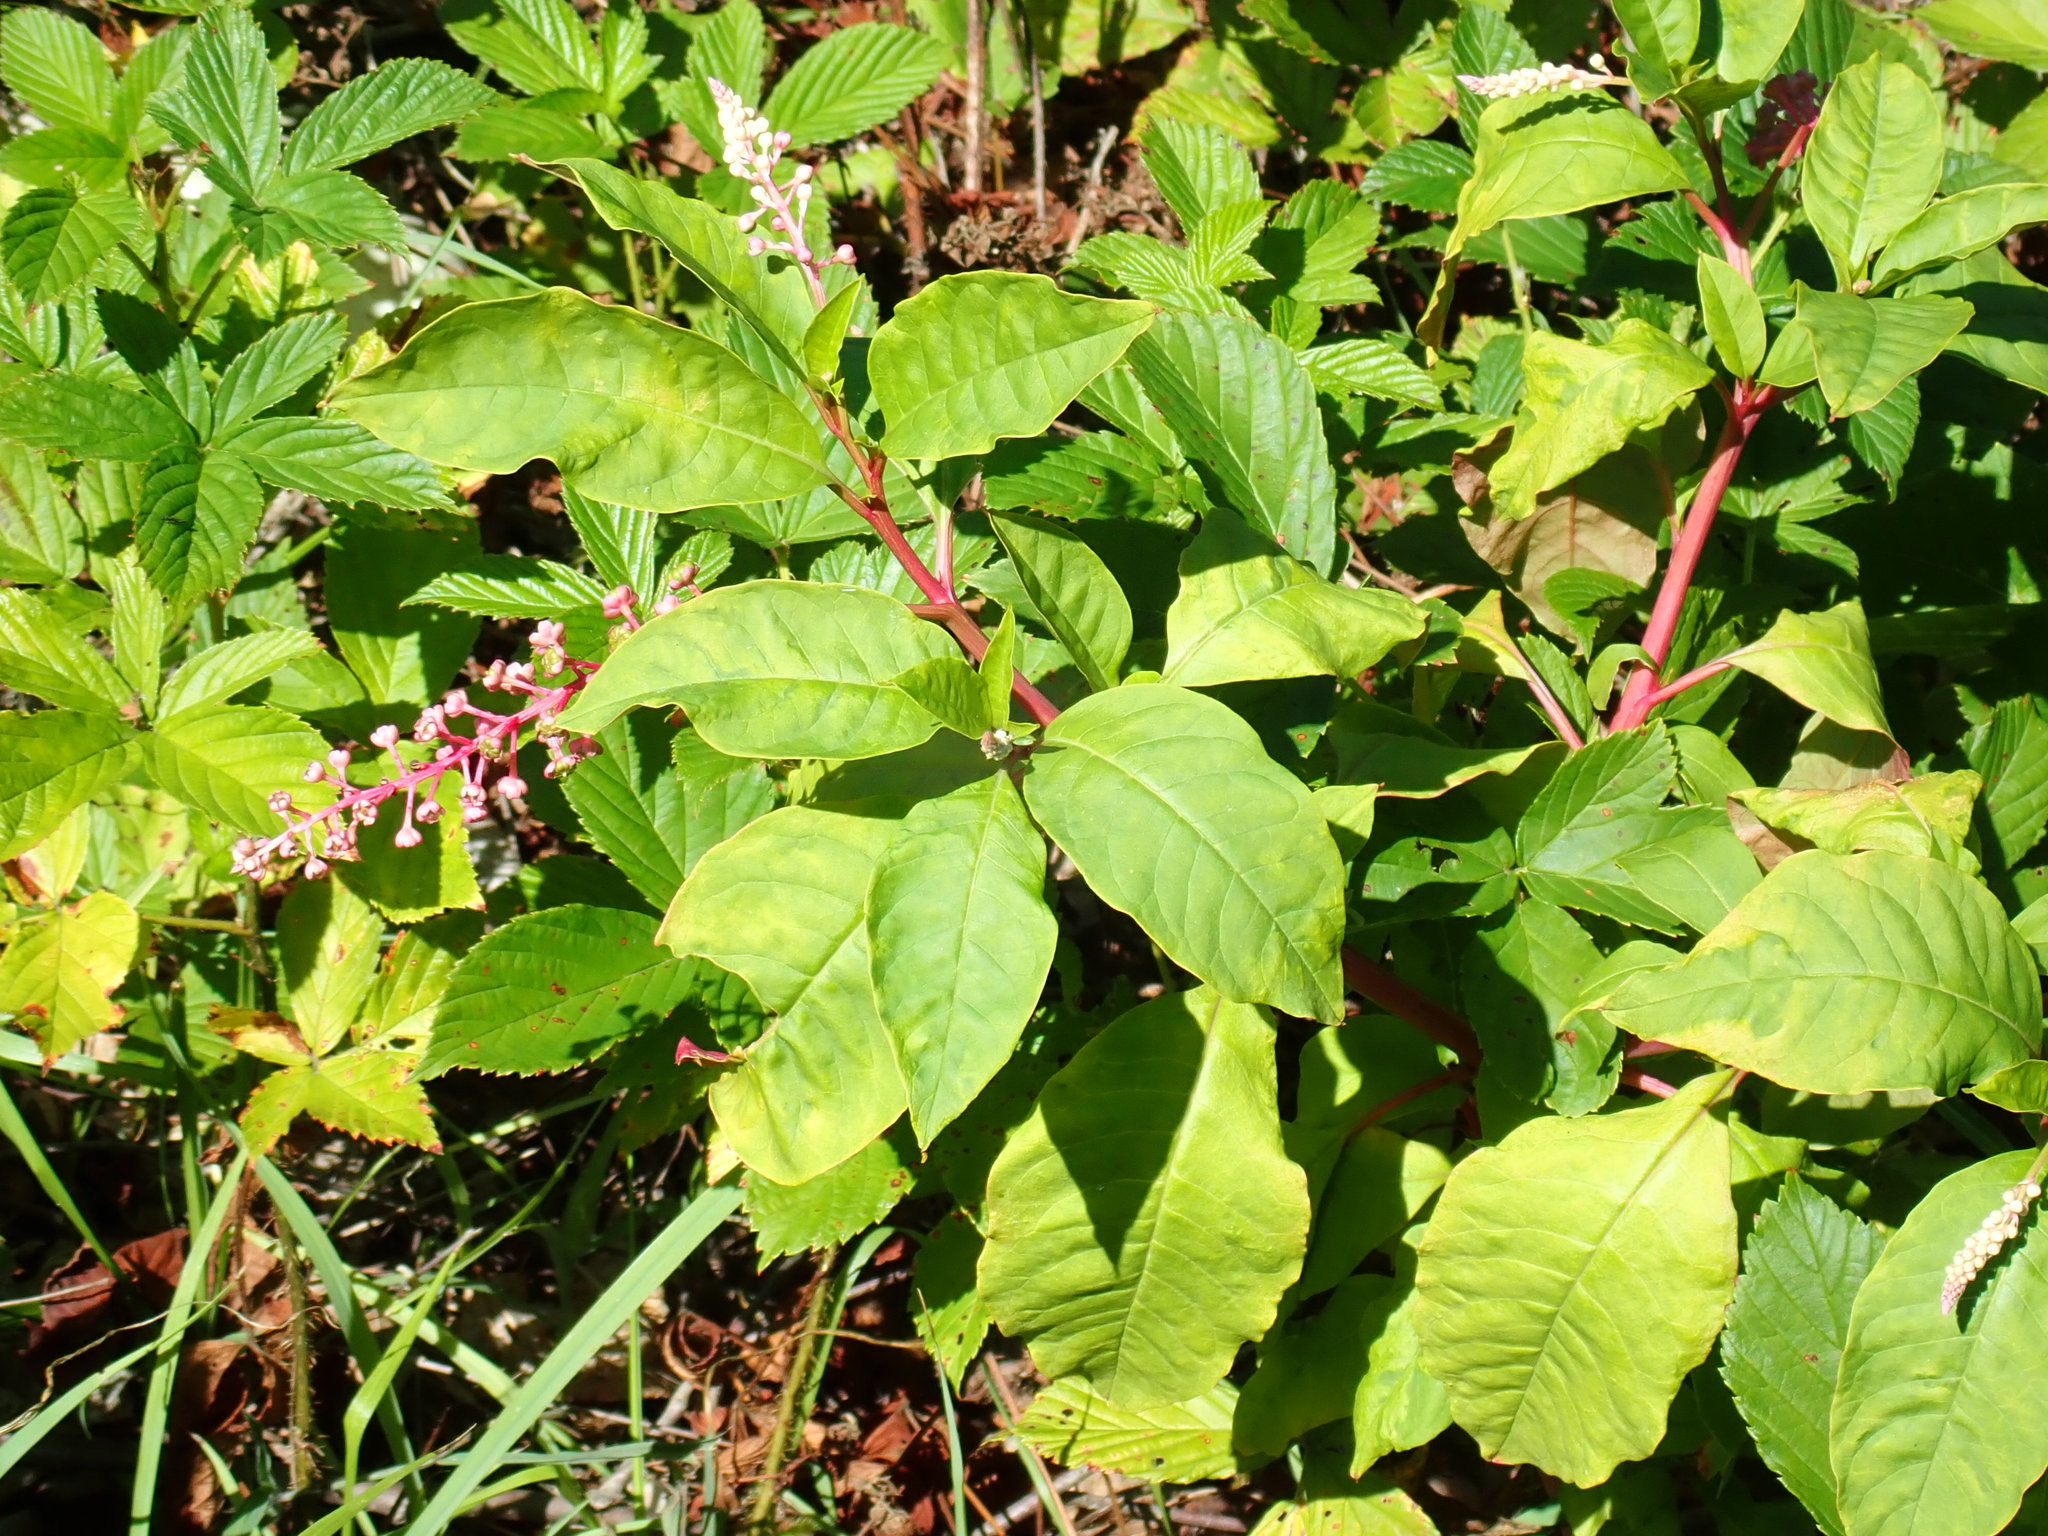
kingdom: Plantae
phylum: Tracheophyta
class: Magnoliopsida
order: Caryophyllales
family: Phytolaccaceae
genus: Phytolacca
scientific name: Phytolacca americana
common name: American pokeweed
